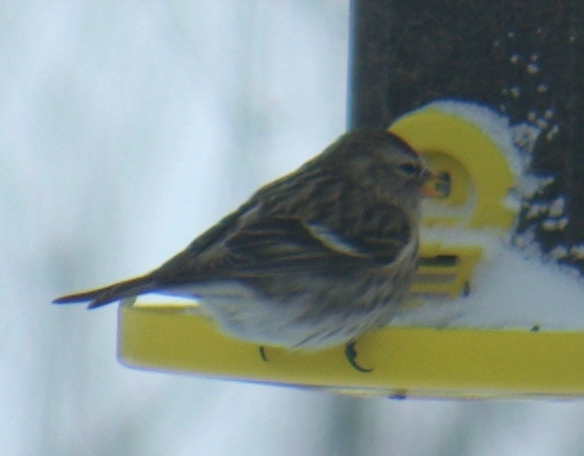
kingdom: Animalia
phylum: Chordata
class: Aves
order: Passeriformes
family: Fringillidae
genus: Acanthis
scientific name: Acanthis flammea
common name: Common redpoll
